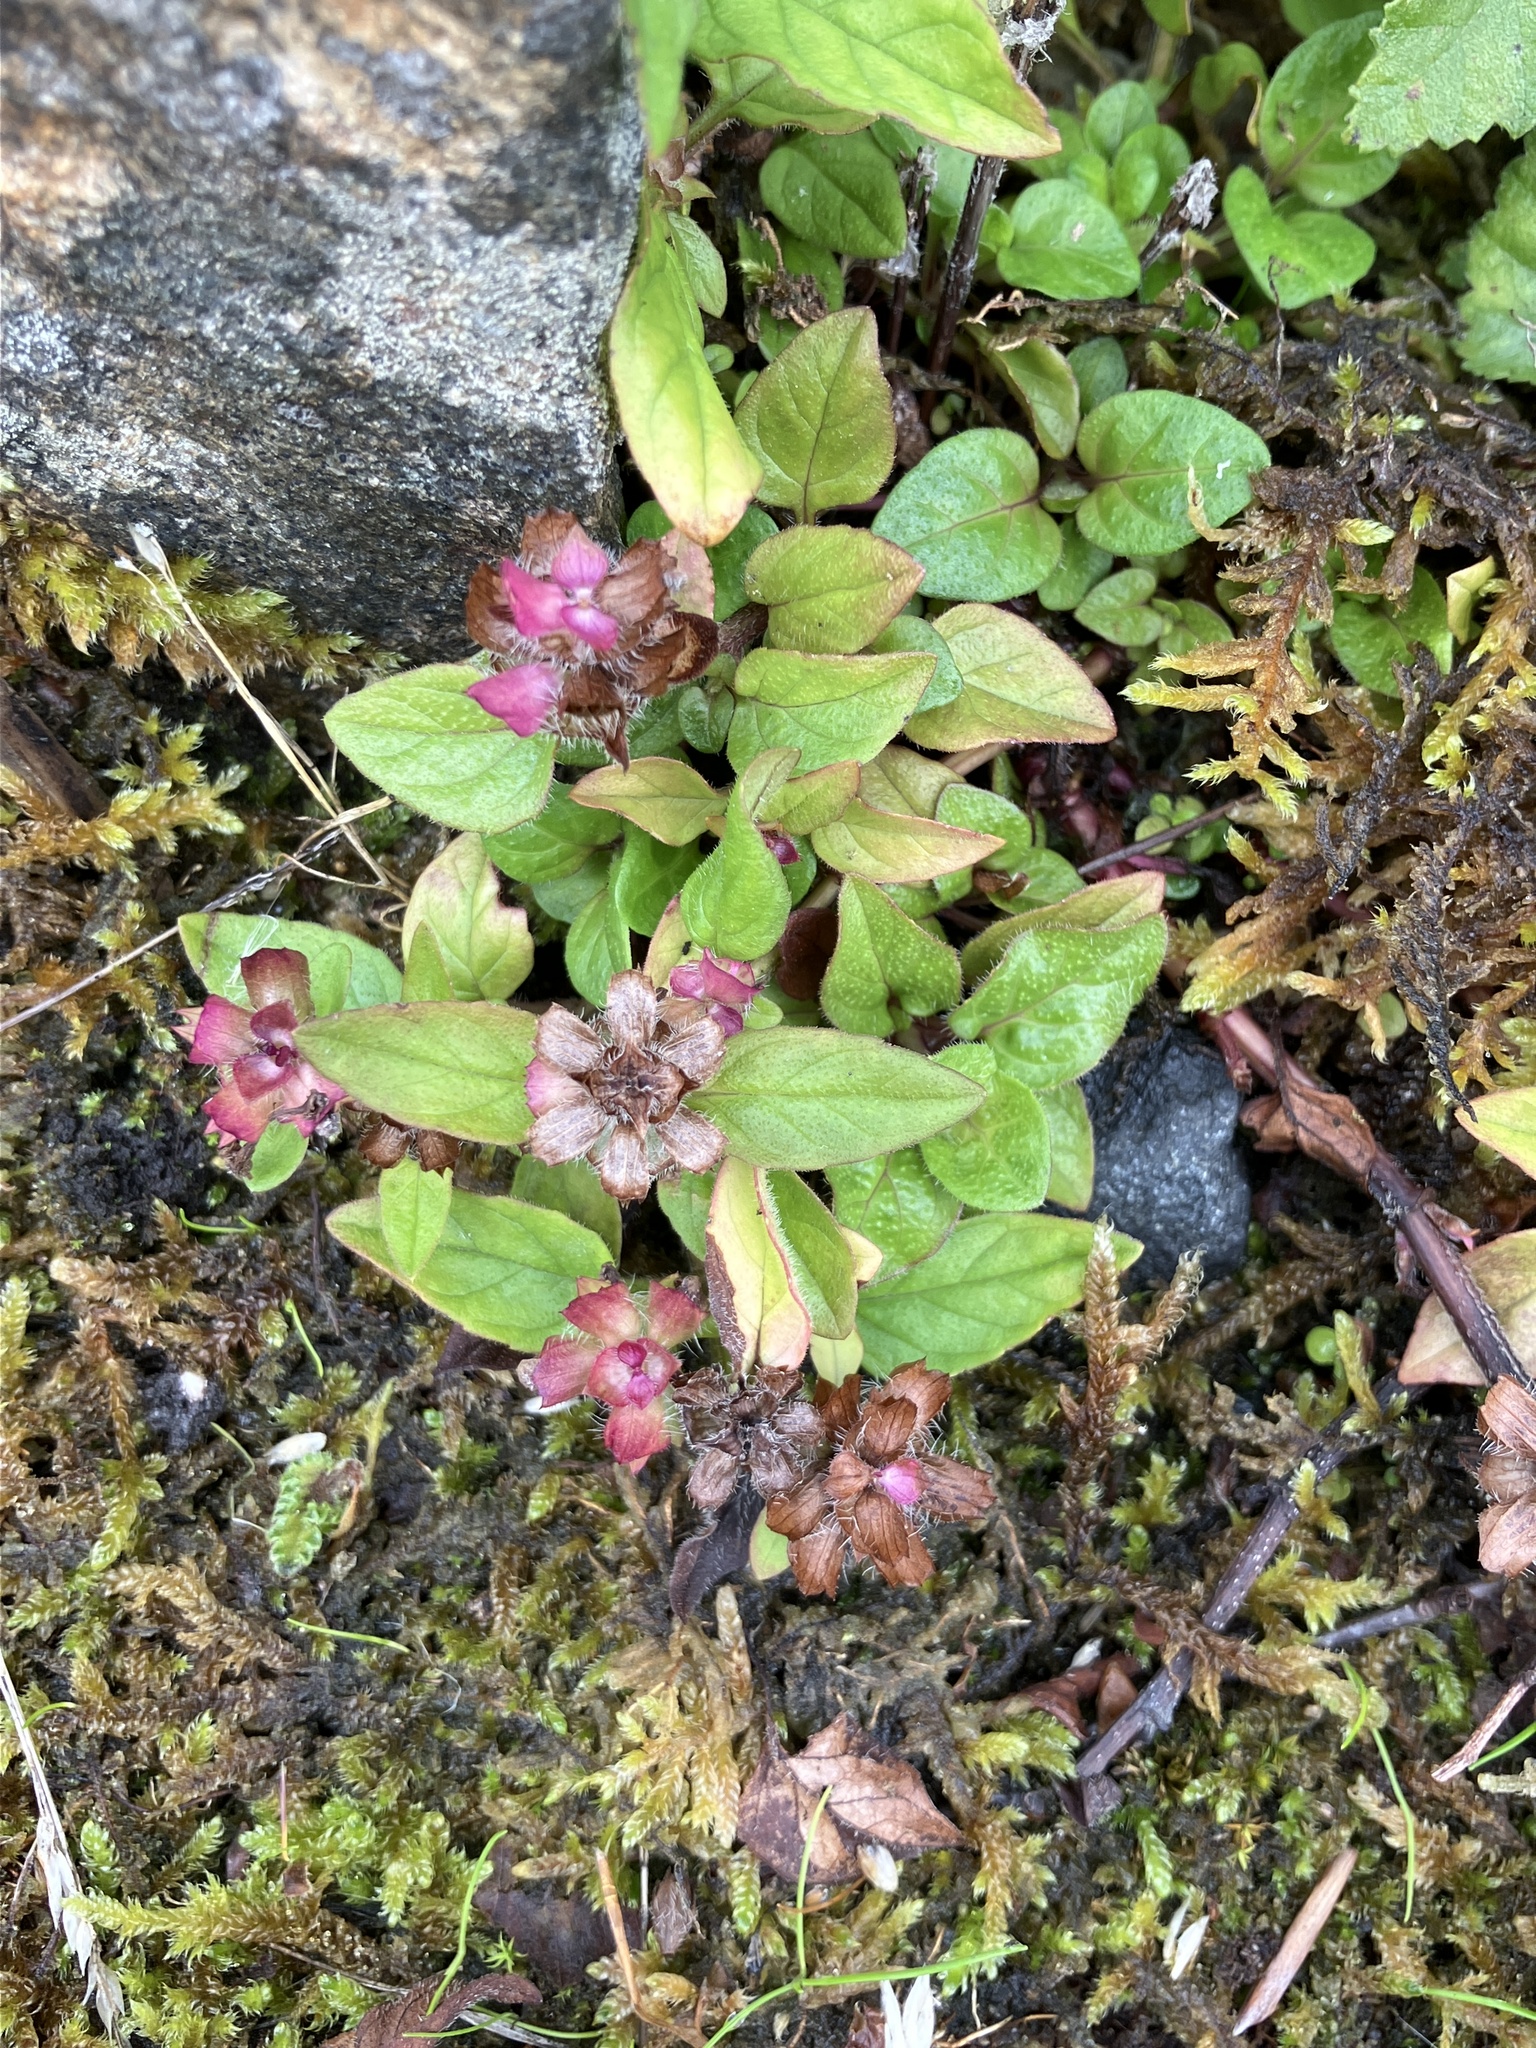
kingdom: Plantae
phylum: Tracheophyta
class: Magnoliopsida
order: Lamiales
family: Lamiaceae
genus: Prunella
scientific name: Prunella vulgaris
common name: Heal-all
